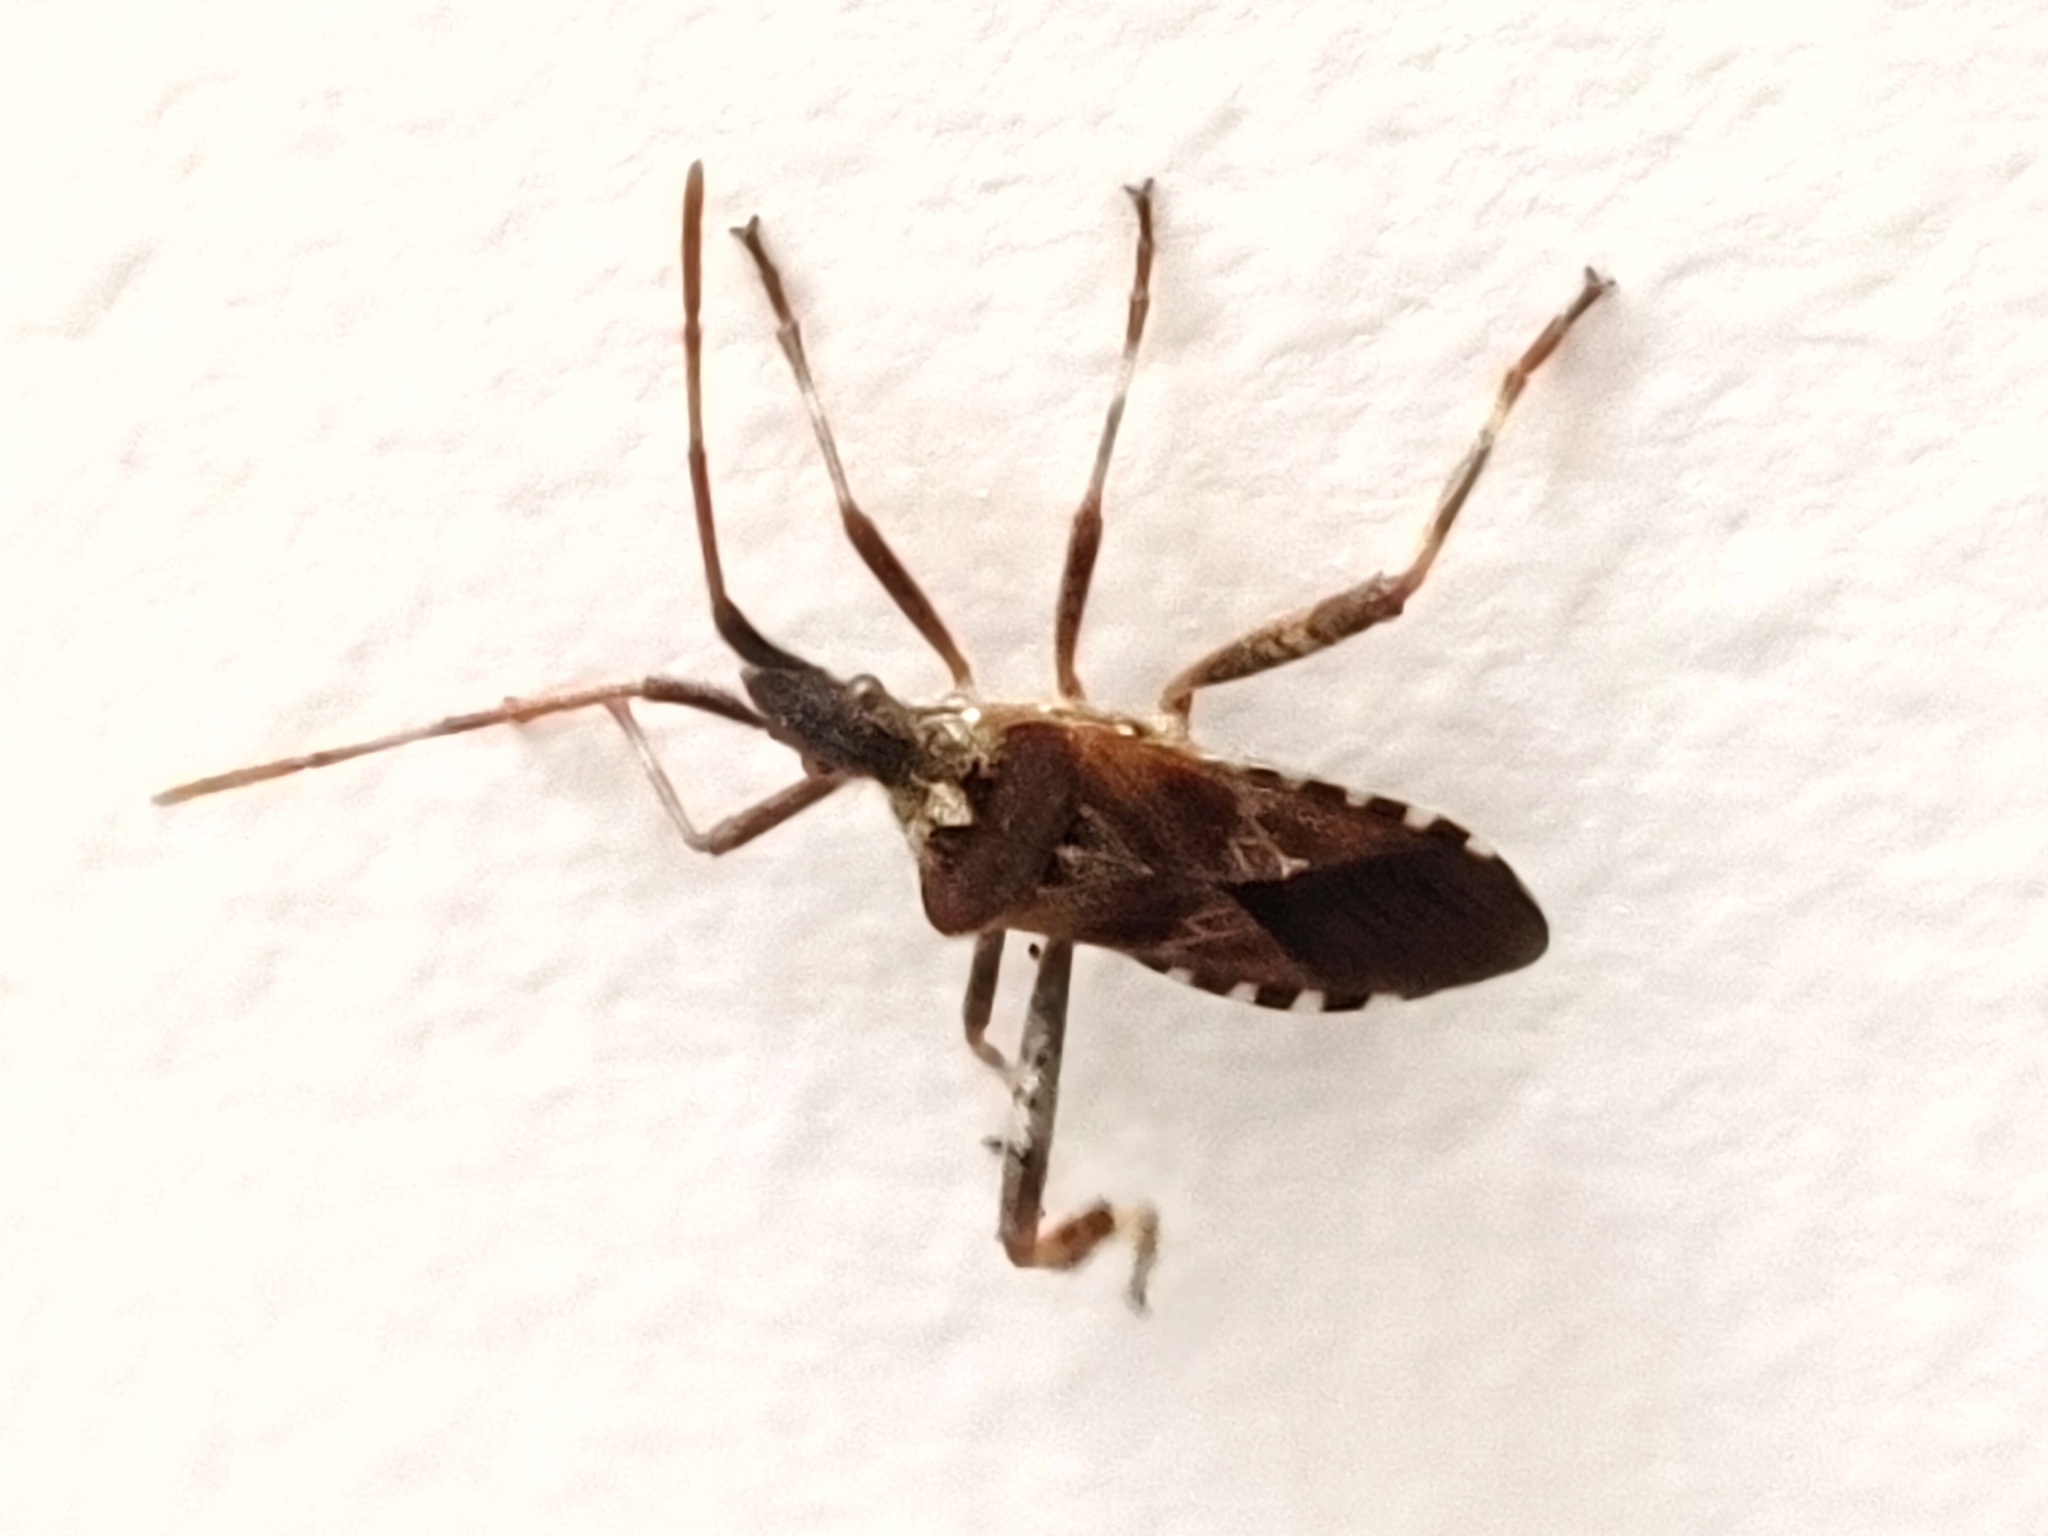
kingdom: Animalia
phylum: Arthropoda
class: Insecta
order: Hemiptera
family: Coreidae
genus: Leptoglossus
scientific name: Leptoglossus occidentalis
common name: Western conifer-seed bug
